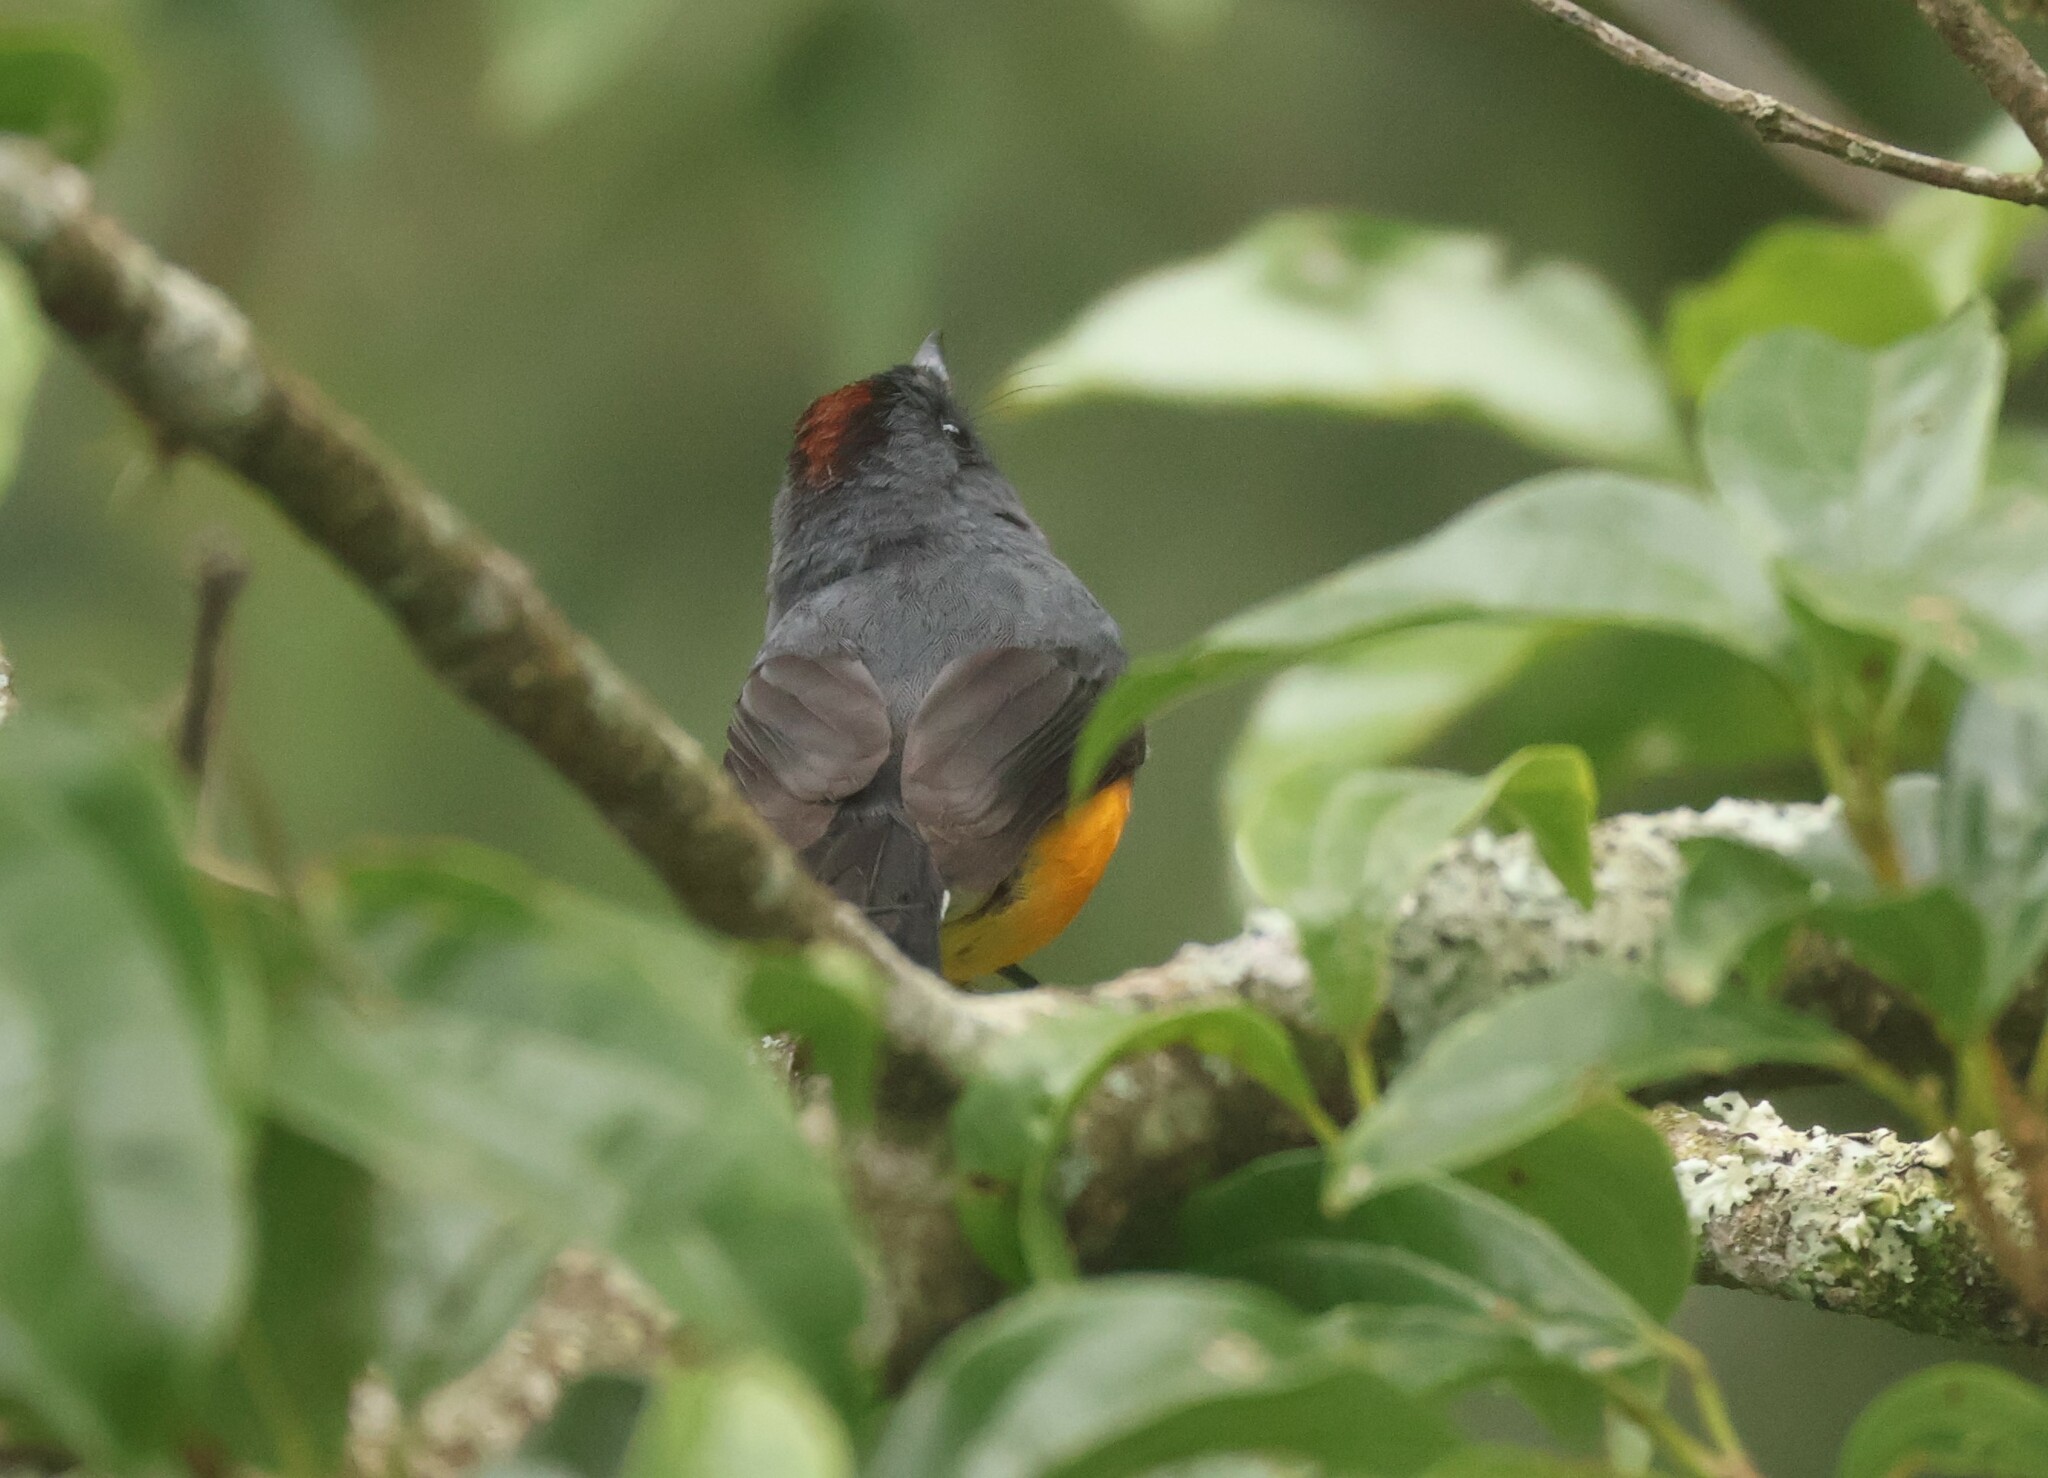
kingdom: Animalia
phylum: Chordata
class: Aves
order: Passeriformes
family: Parulidae
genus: Myioborus
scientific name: Myioborus miniatus
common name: Slate-throated redstart
